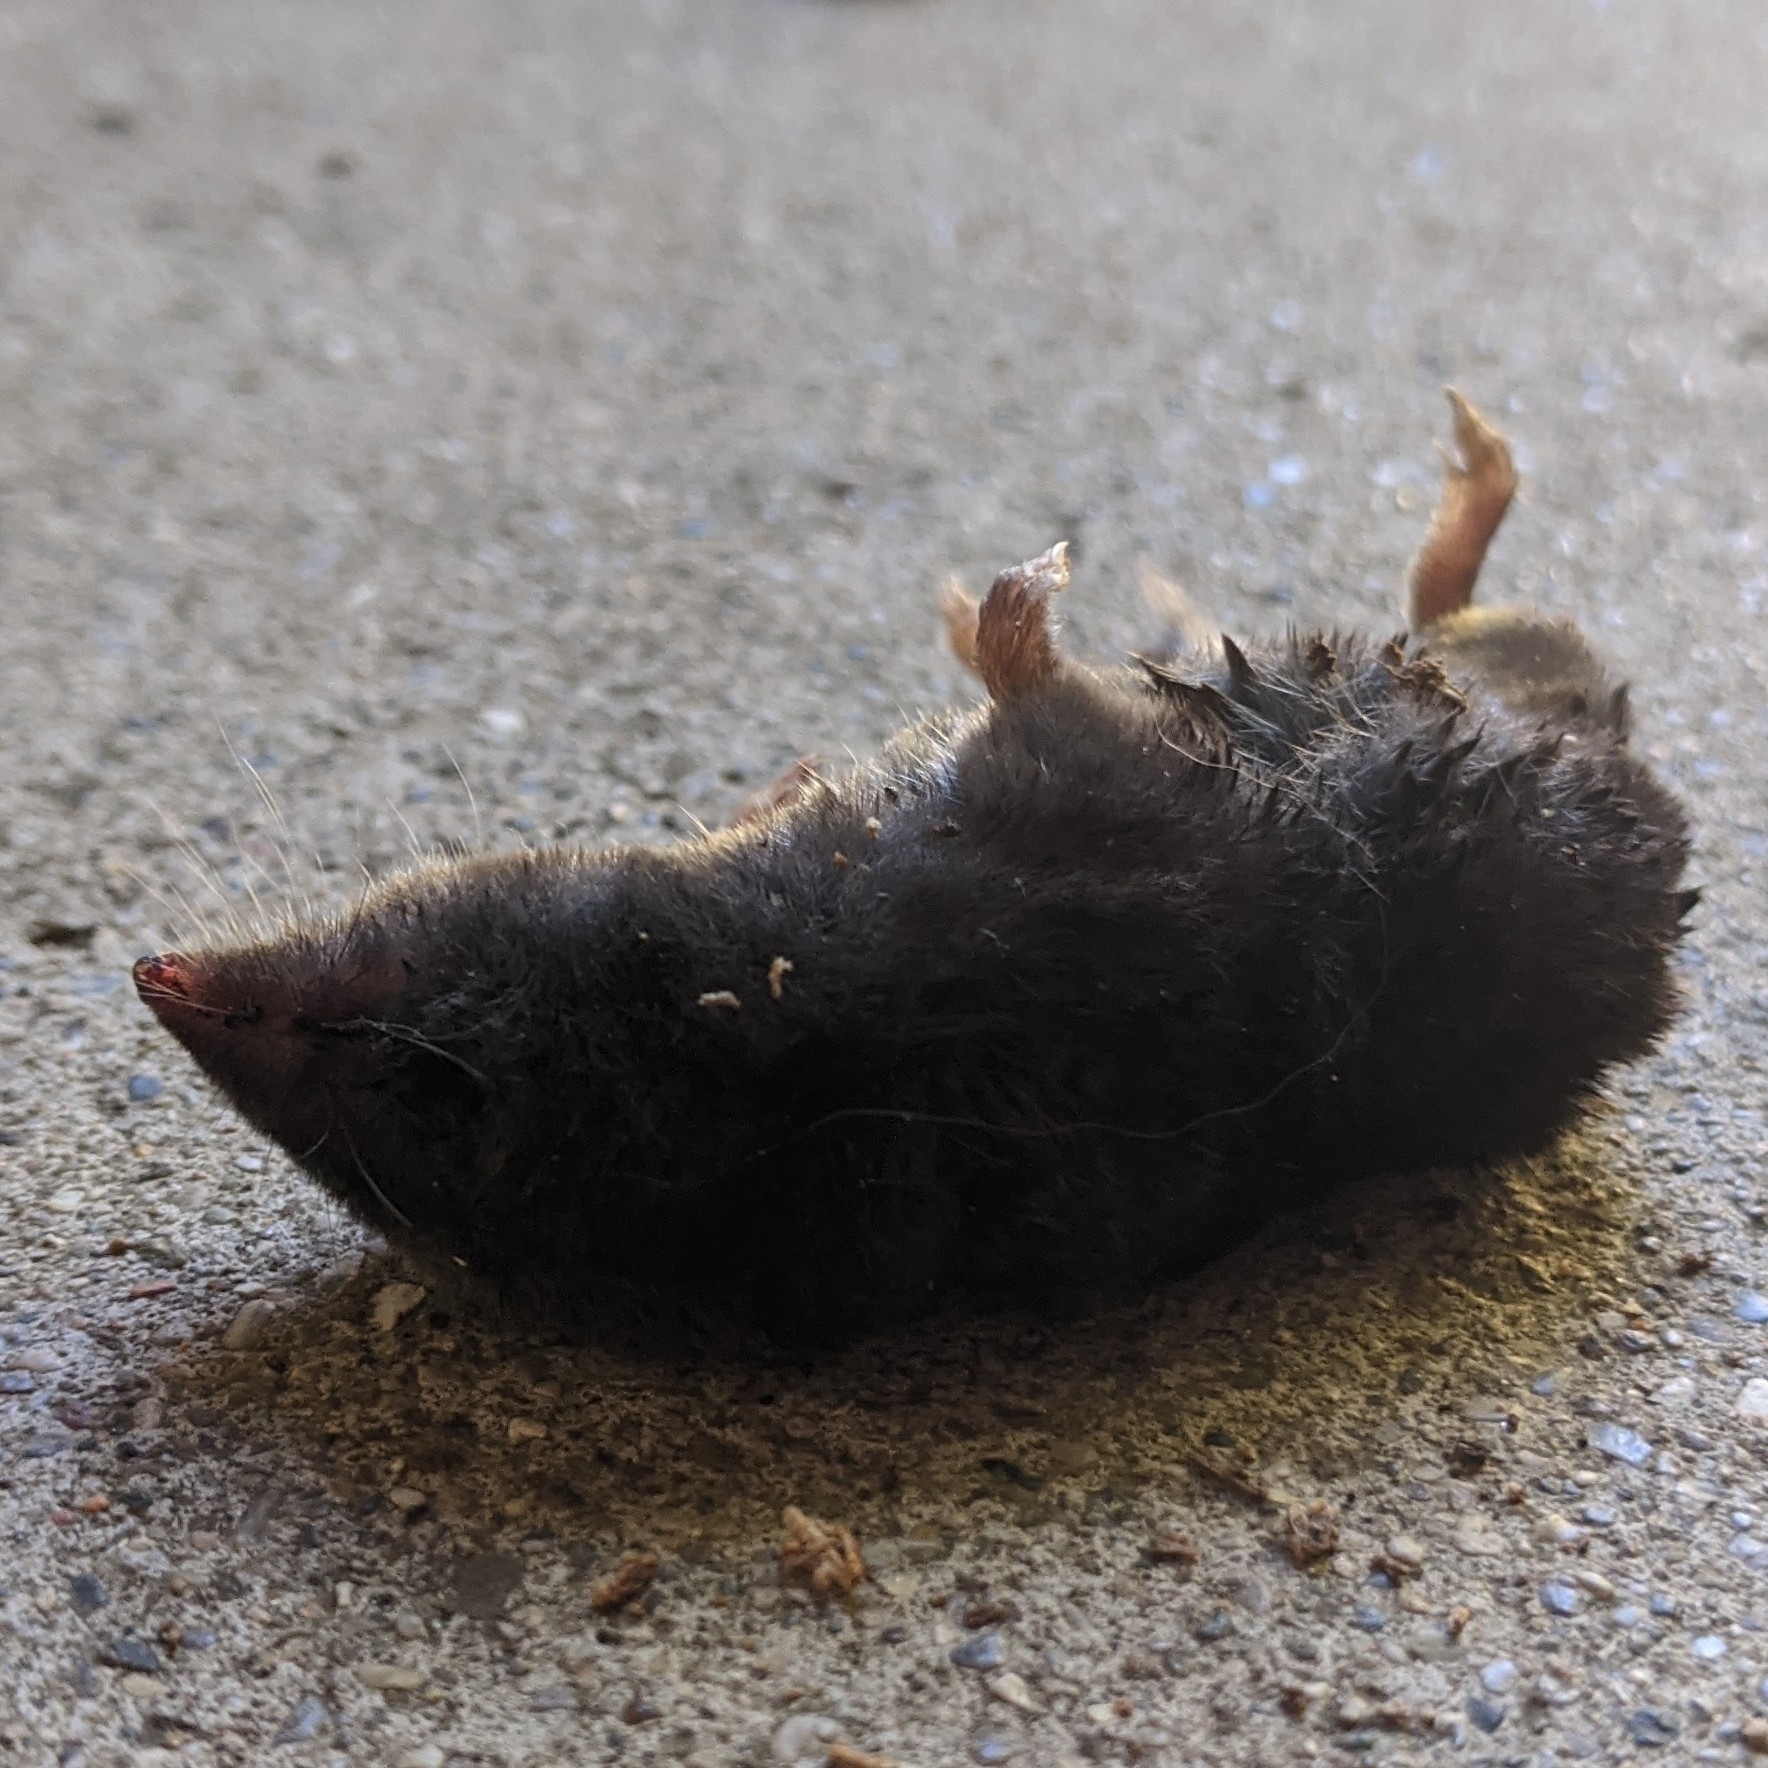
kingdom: Animalia
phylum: Chordata
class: Mammalia
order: Soricomorpha
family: Soricidae
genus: Blarina
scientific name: Blarina brevicauda
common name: Northern short-tailed shrew
